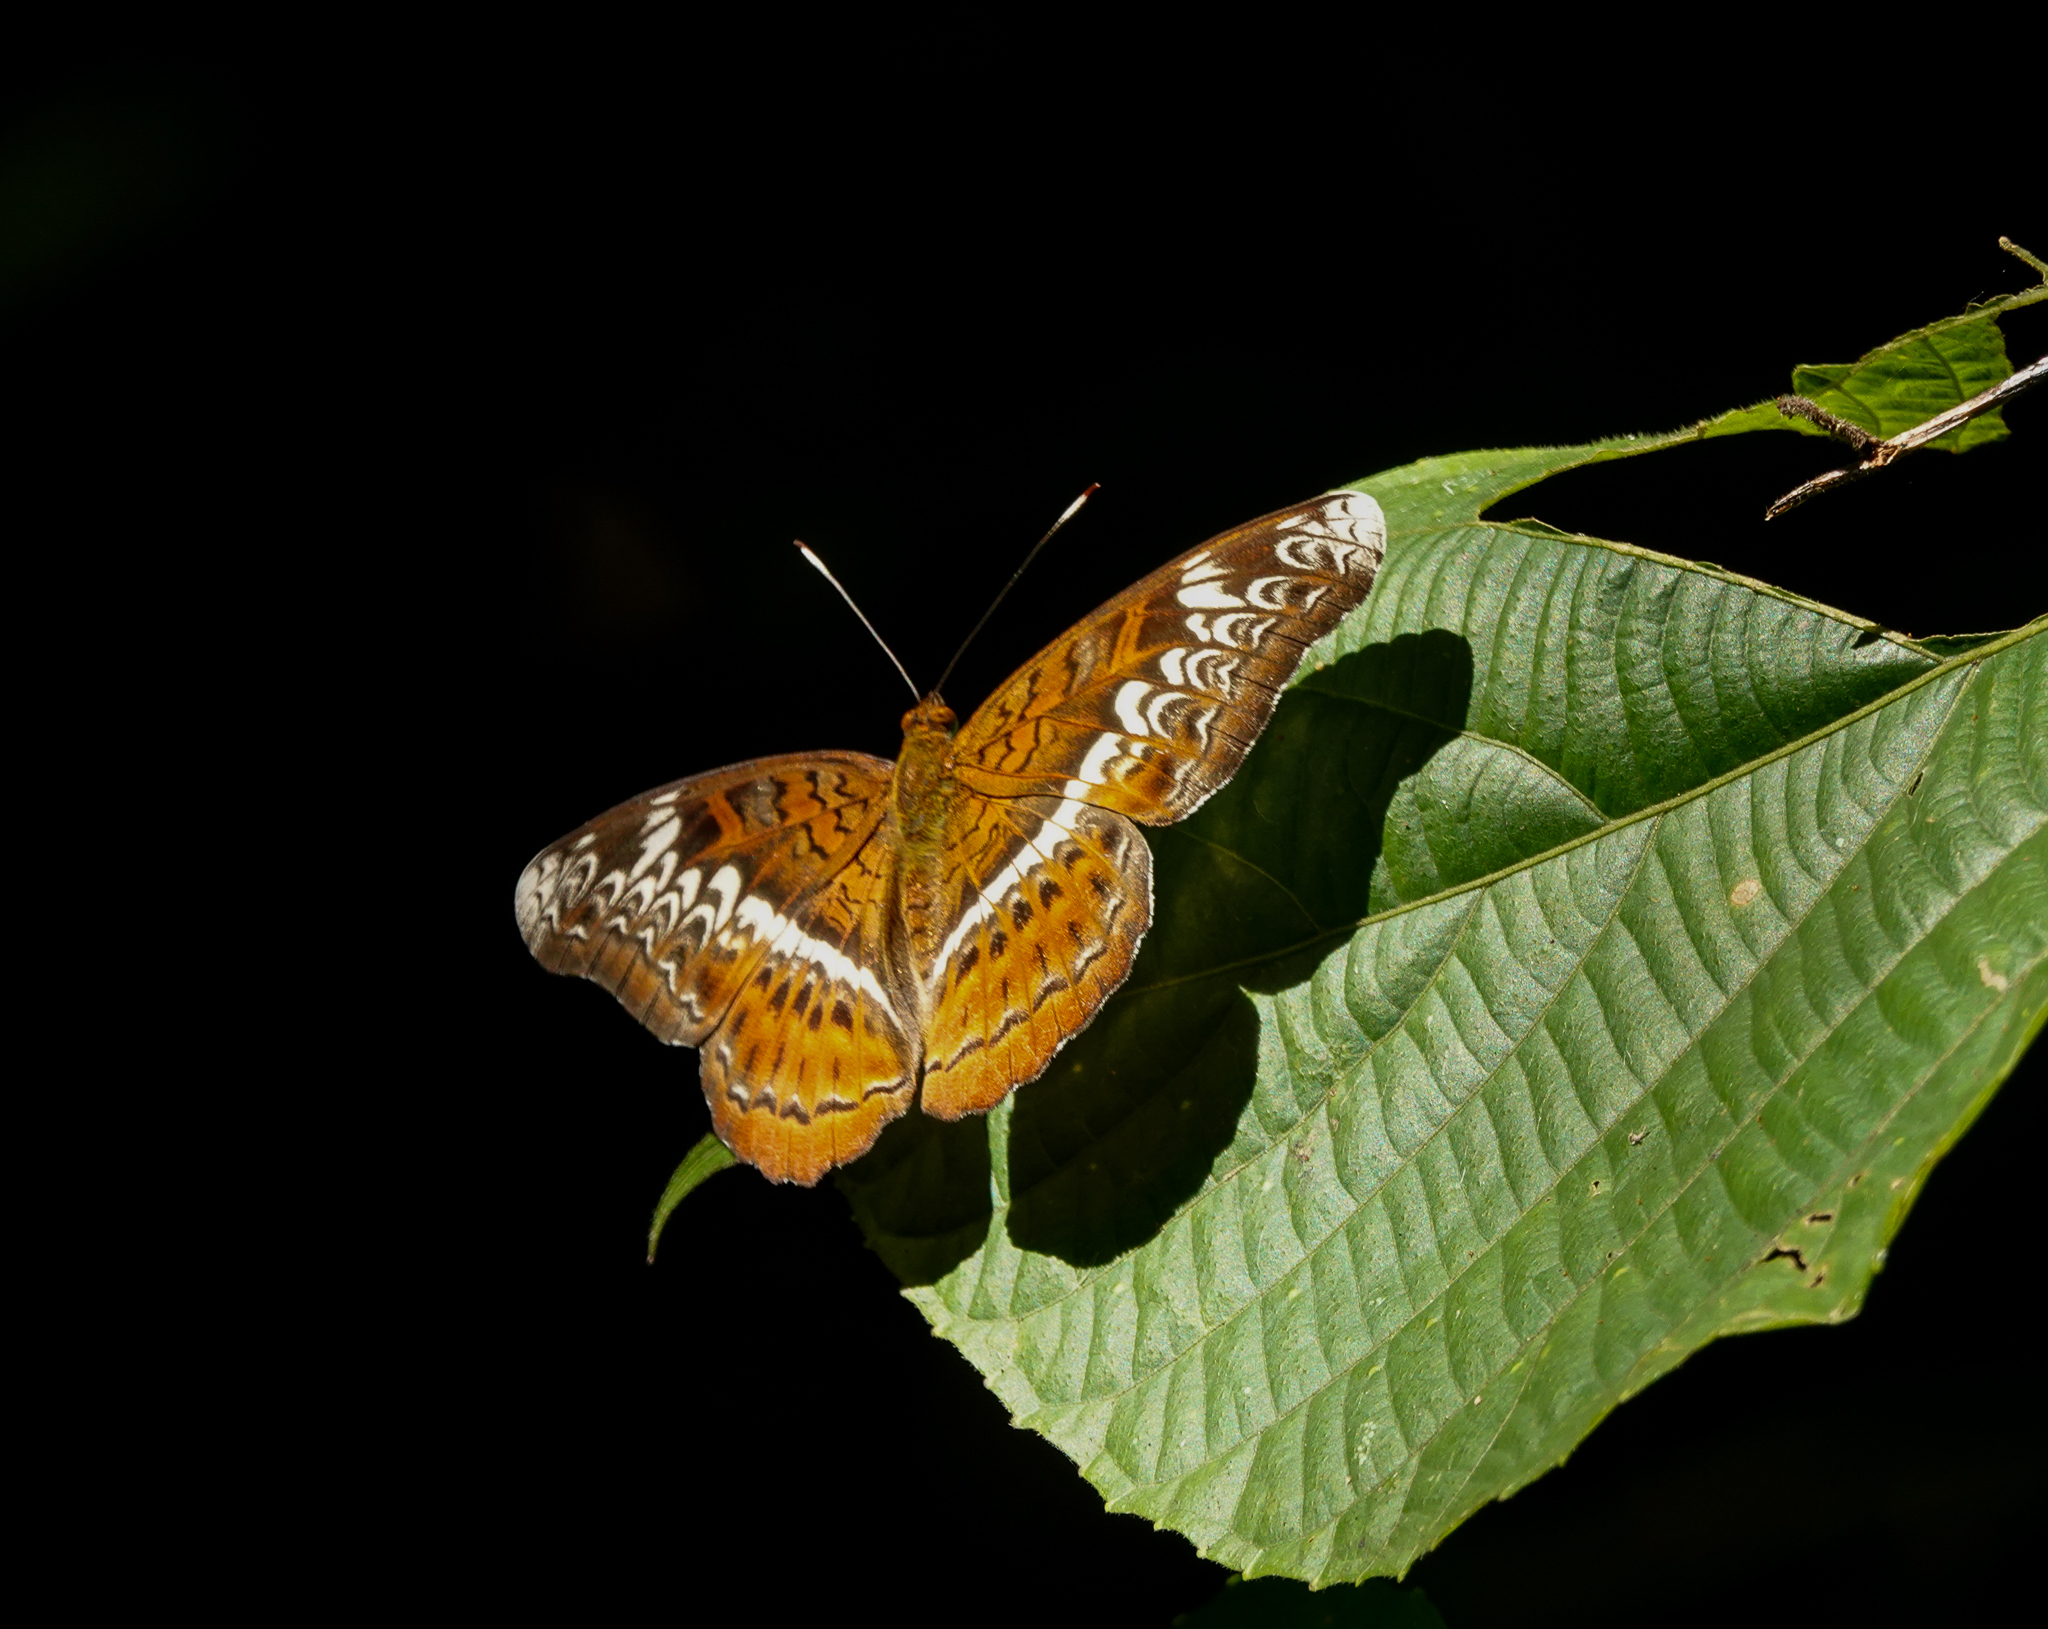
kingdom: Animalia
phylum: Arthropoda
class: Insecta
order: Lepidoptera
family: Nymphalidae
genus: Lebadea
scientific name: Lebadea martha
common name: Knight
